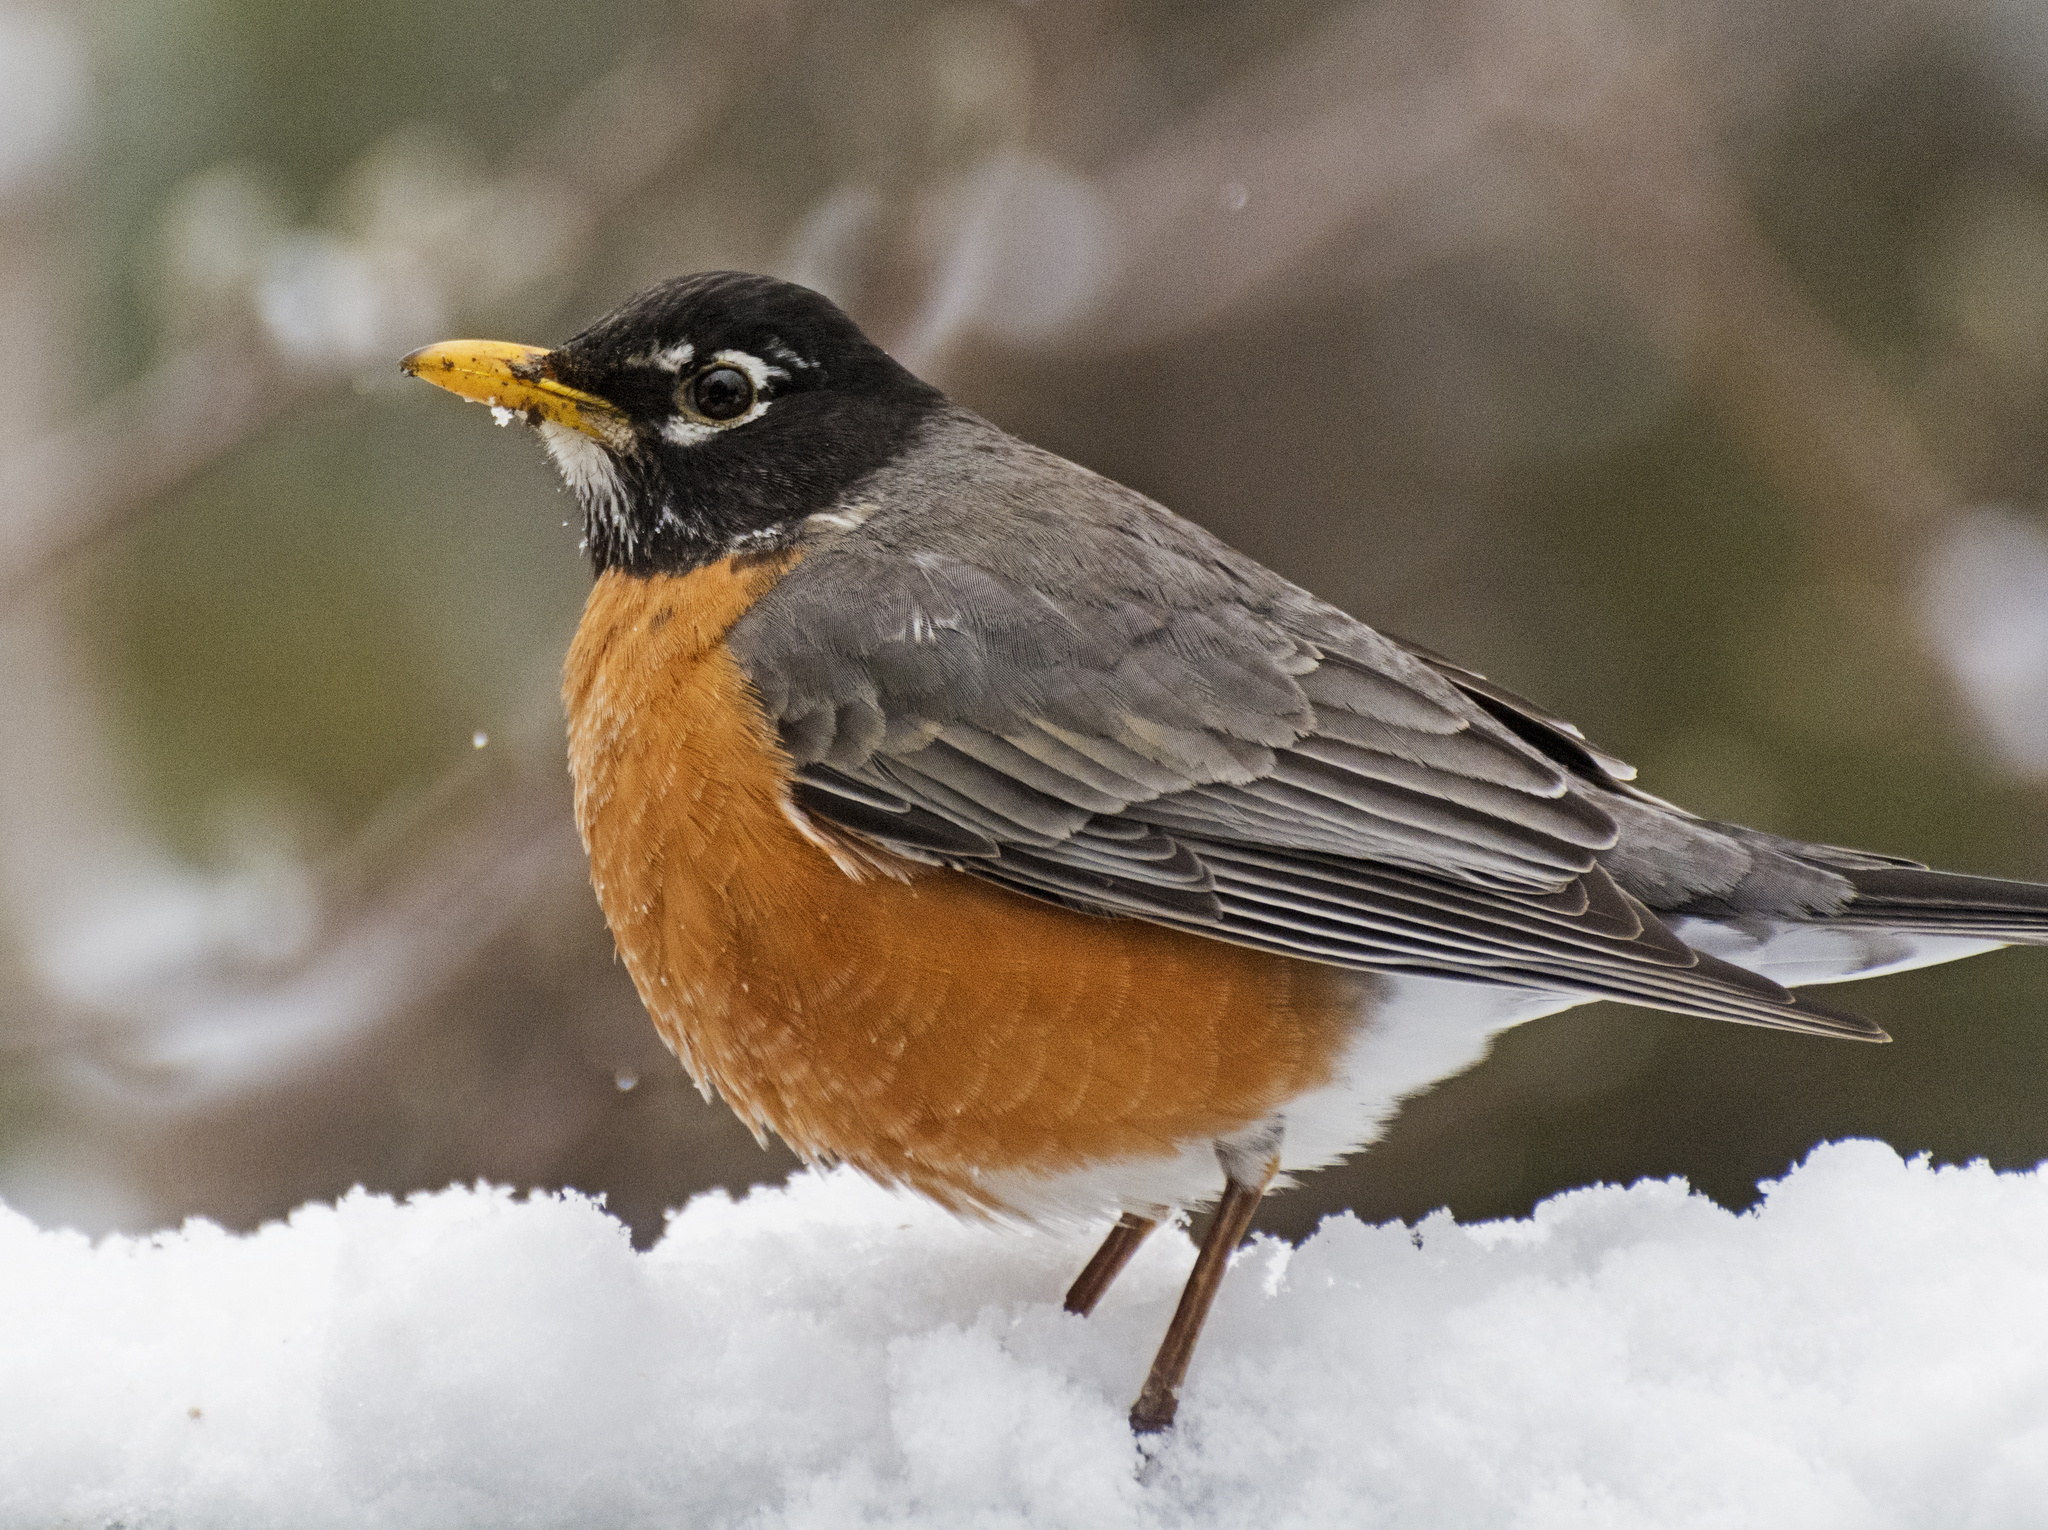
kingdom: Animalia
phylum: Chordata
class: Aves
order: Passeriformes
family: Turdidae
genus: Turdus
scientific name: Turdus migratorius
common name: American robin
